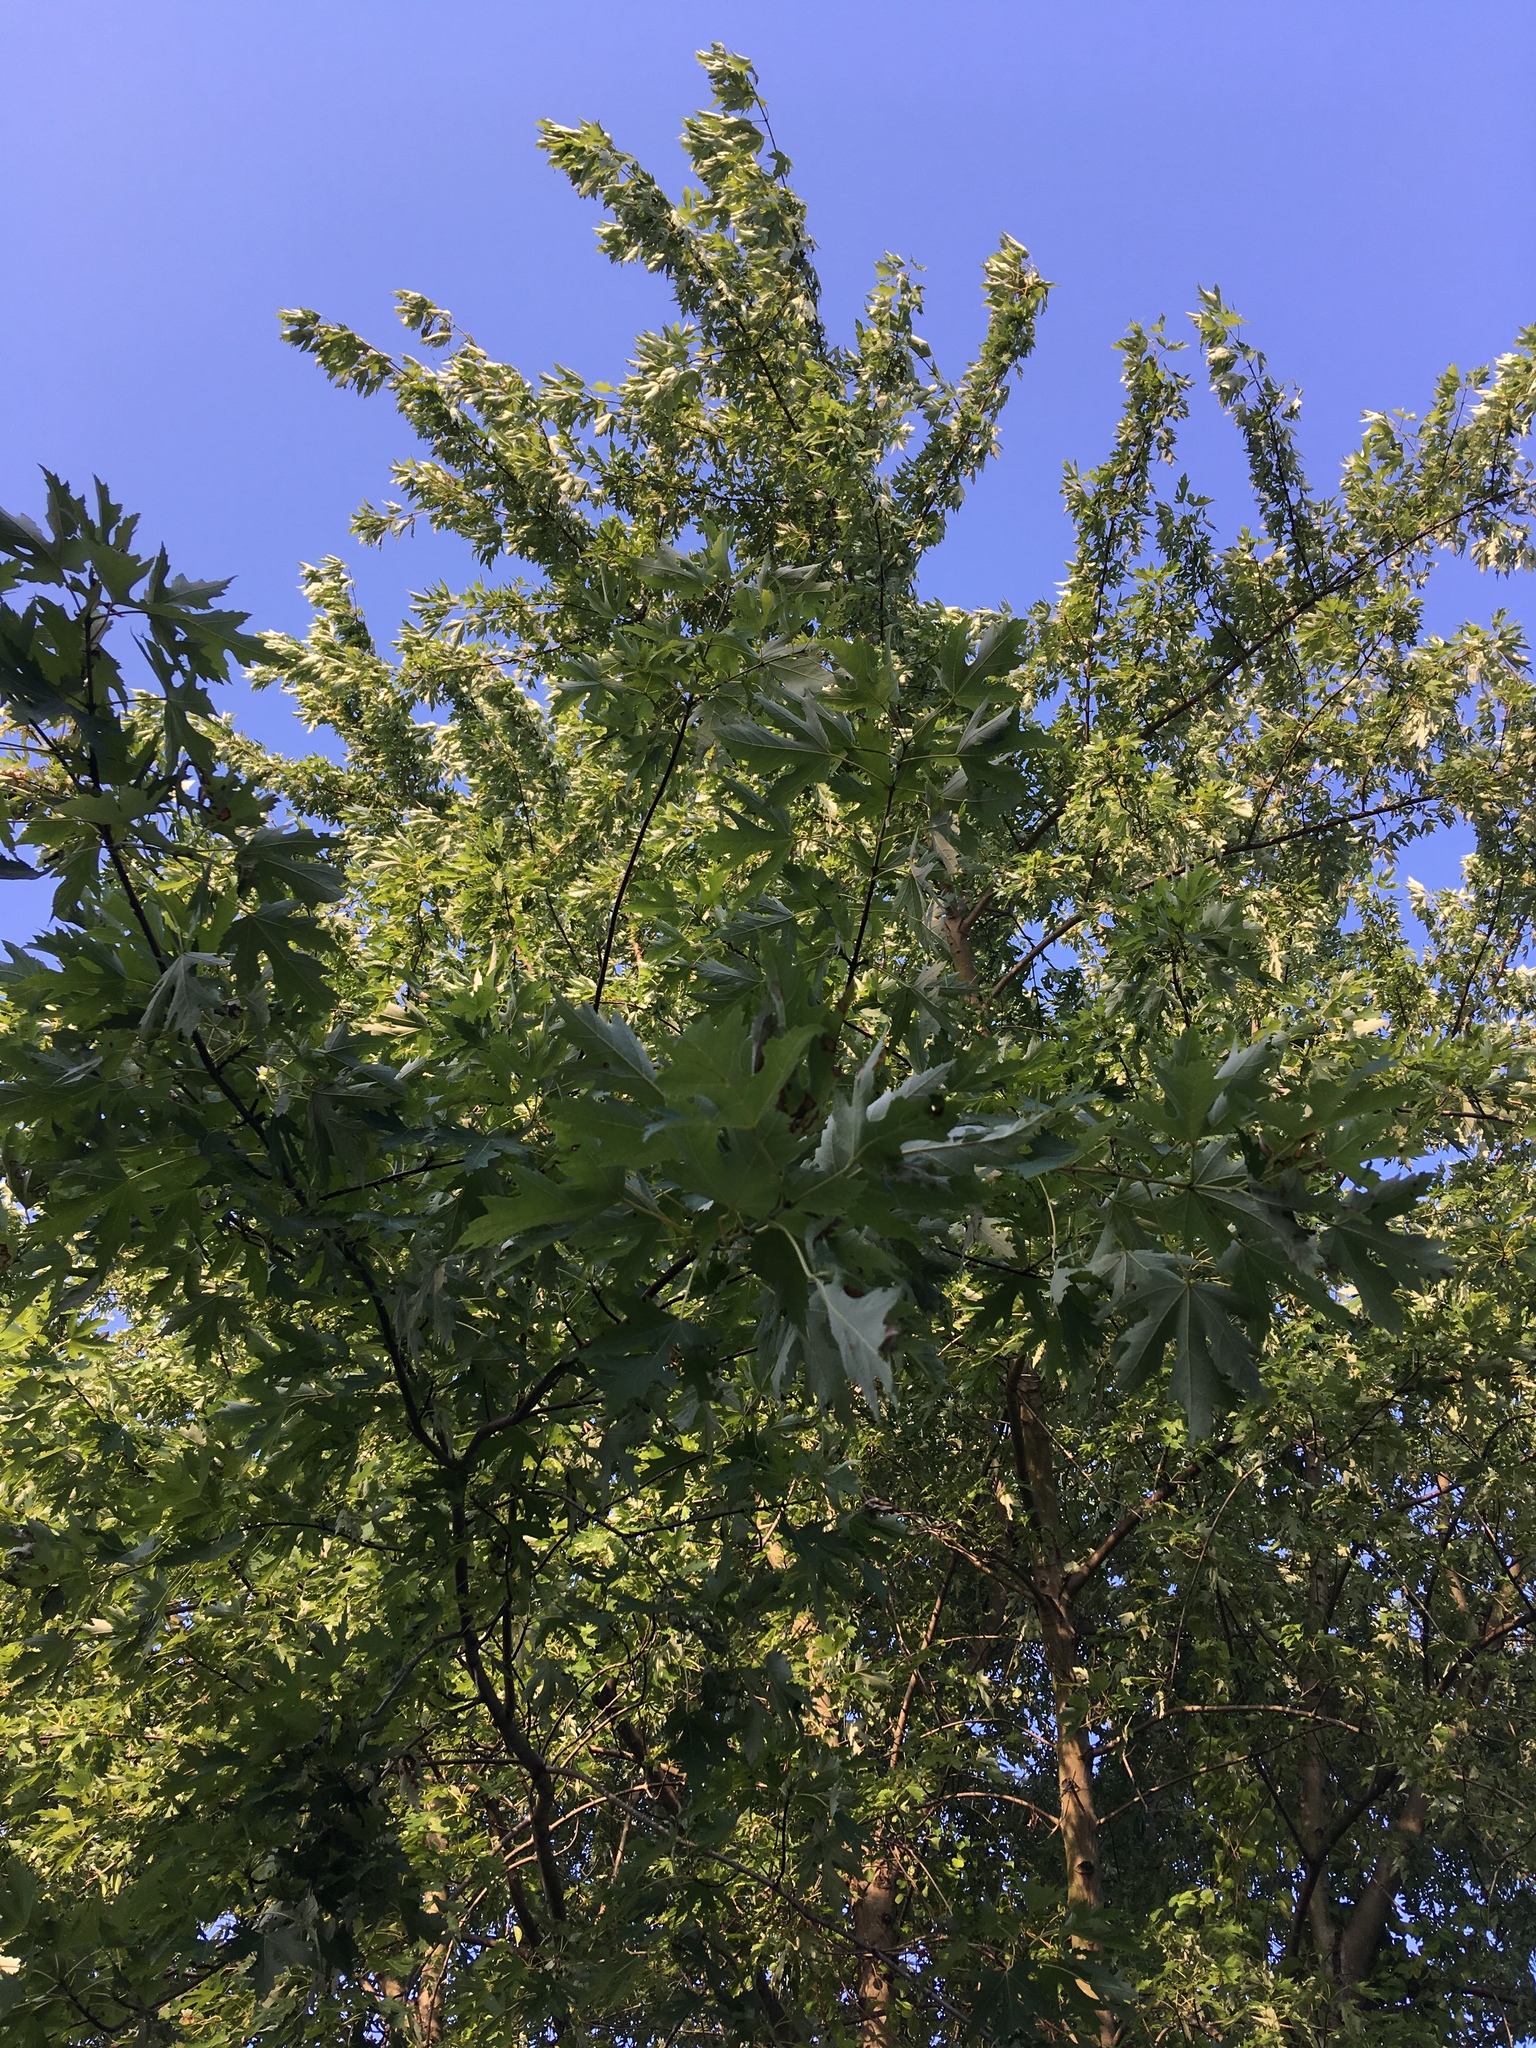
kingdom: Plantae
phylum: Tracheophyta
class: Magnoliopsida
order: Sapindales
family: Sapindaceae
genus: Acer
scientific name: Acer saccharinum
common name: Silver maple
